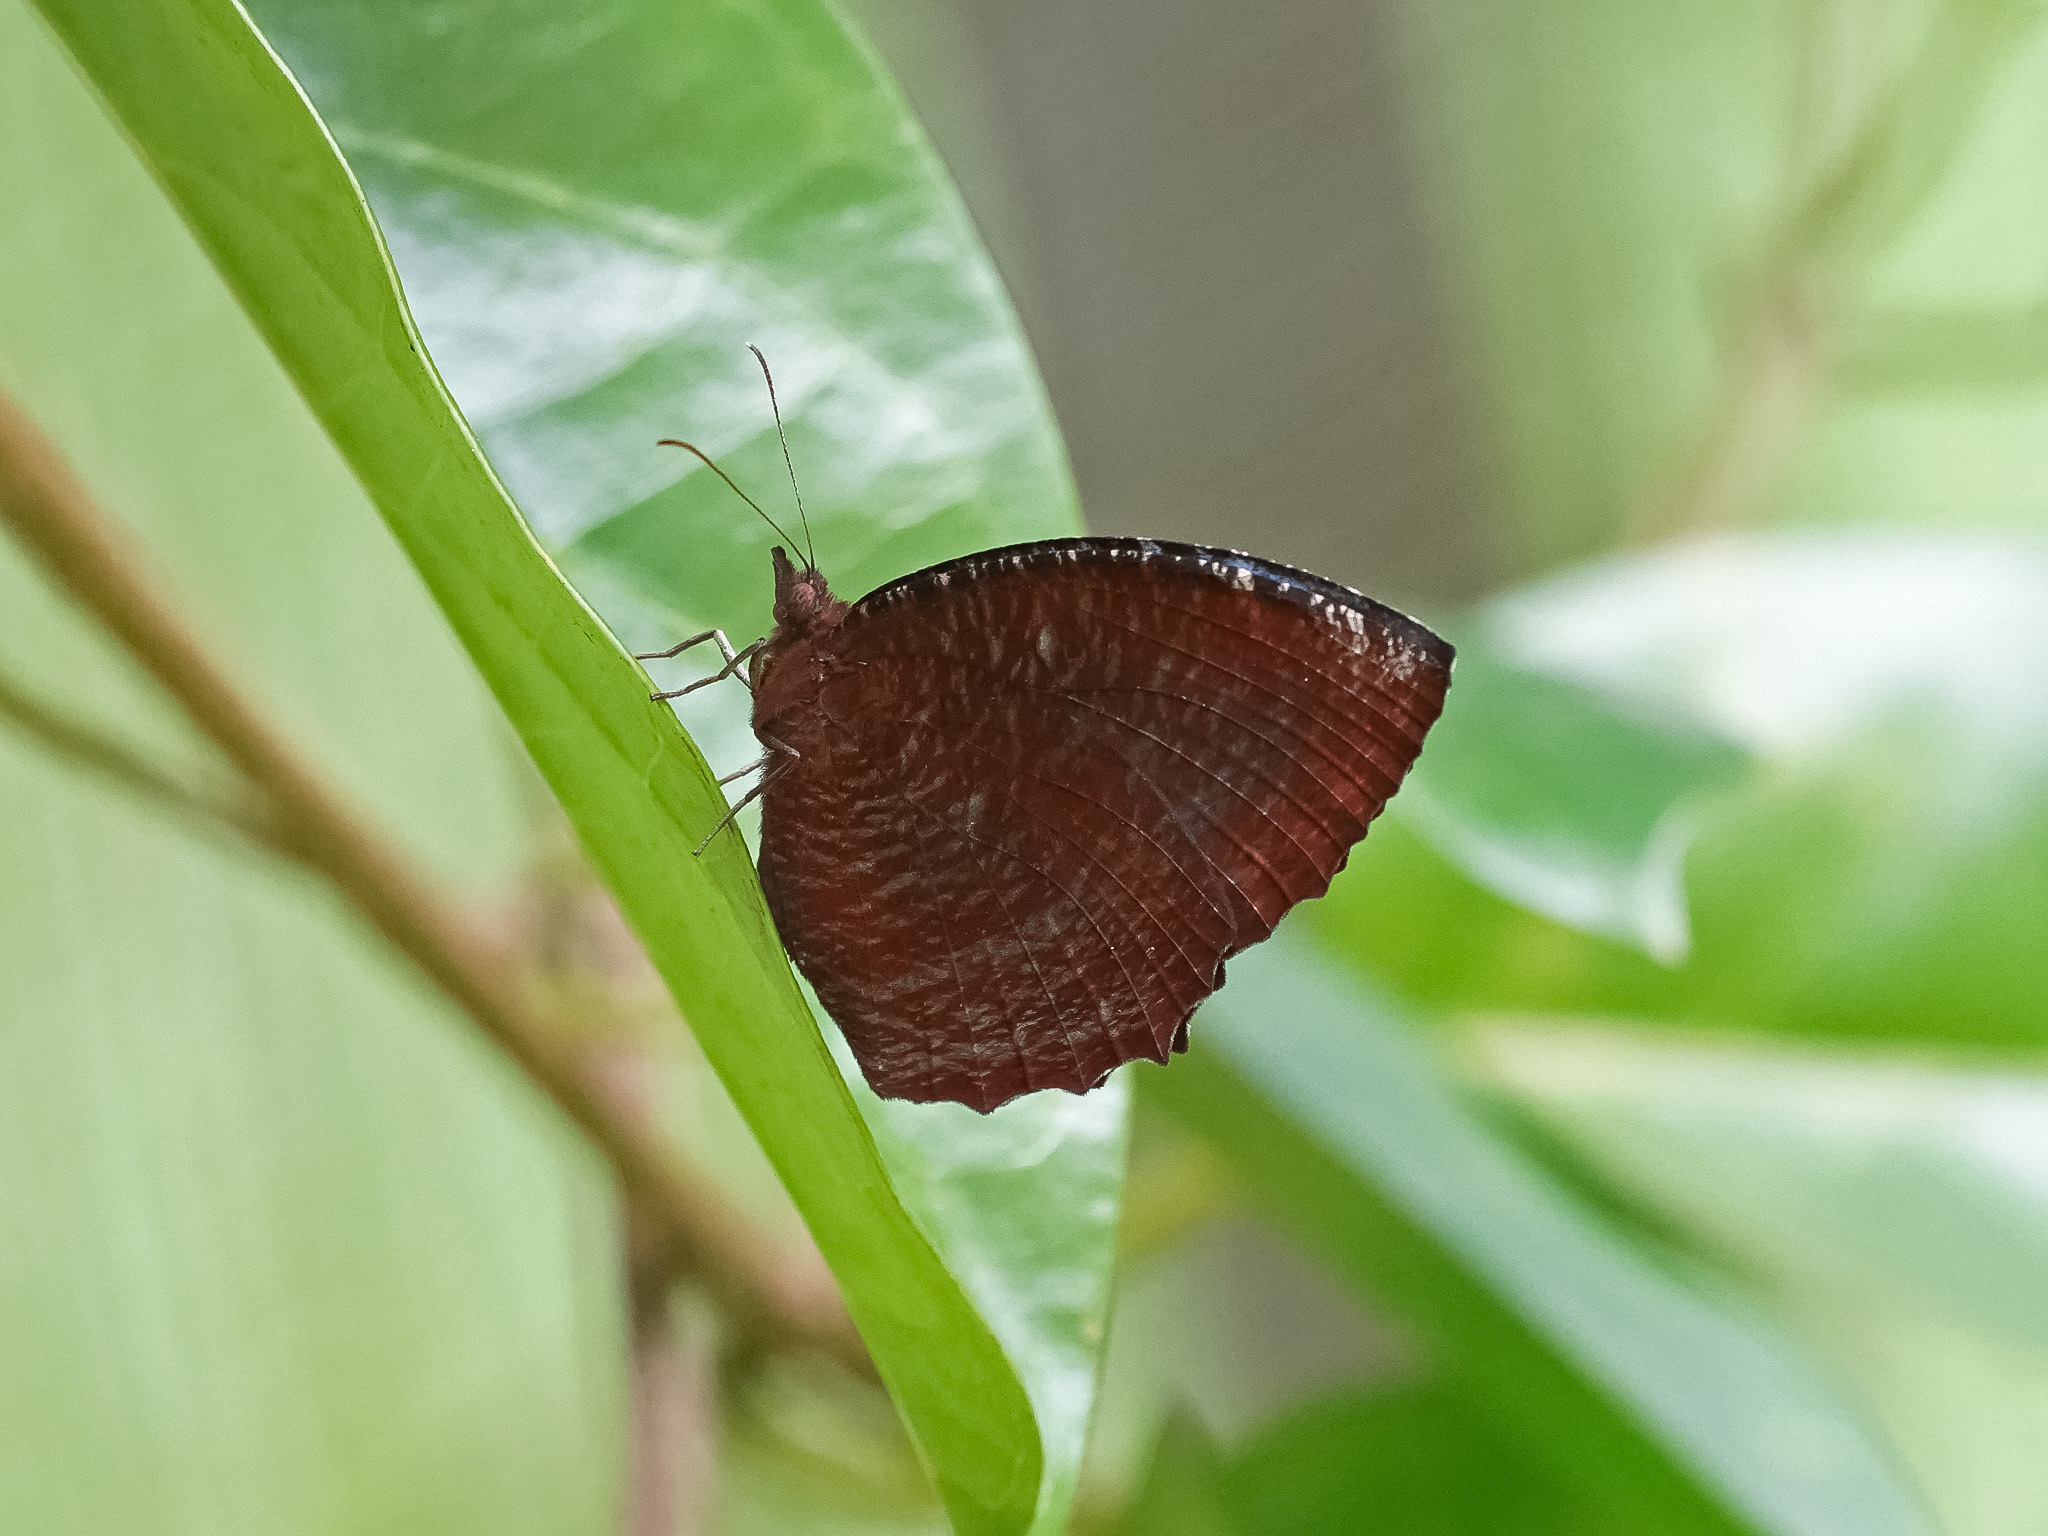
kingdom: Animalia
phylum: Arthropoda
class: Insecta
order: Lepidoptera
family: Nymphalidae
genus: Elymnias
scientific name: Elymnias hypermnestra
